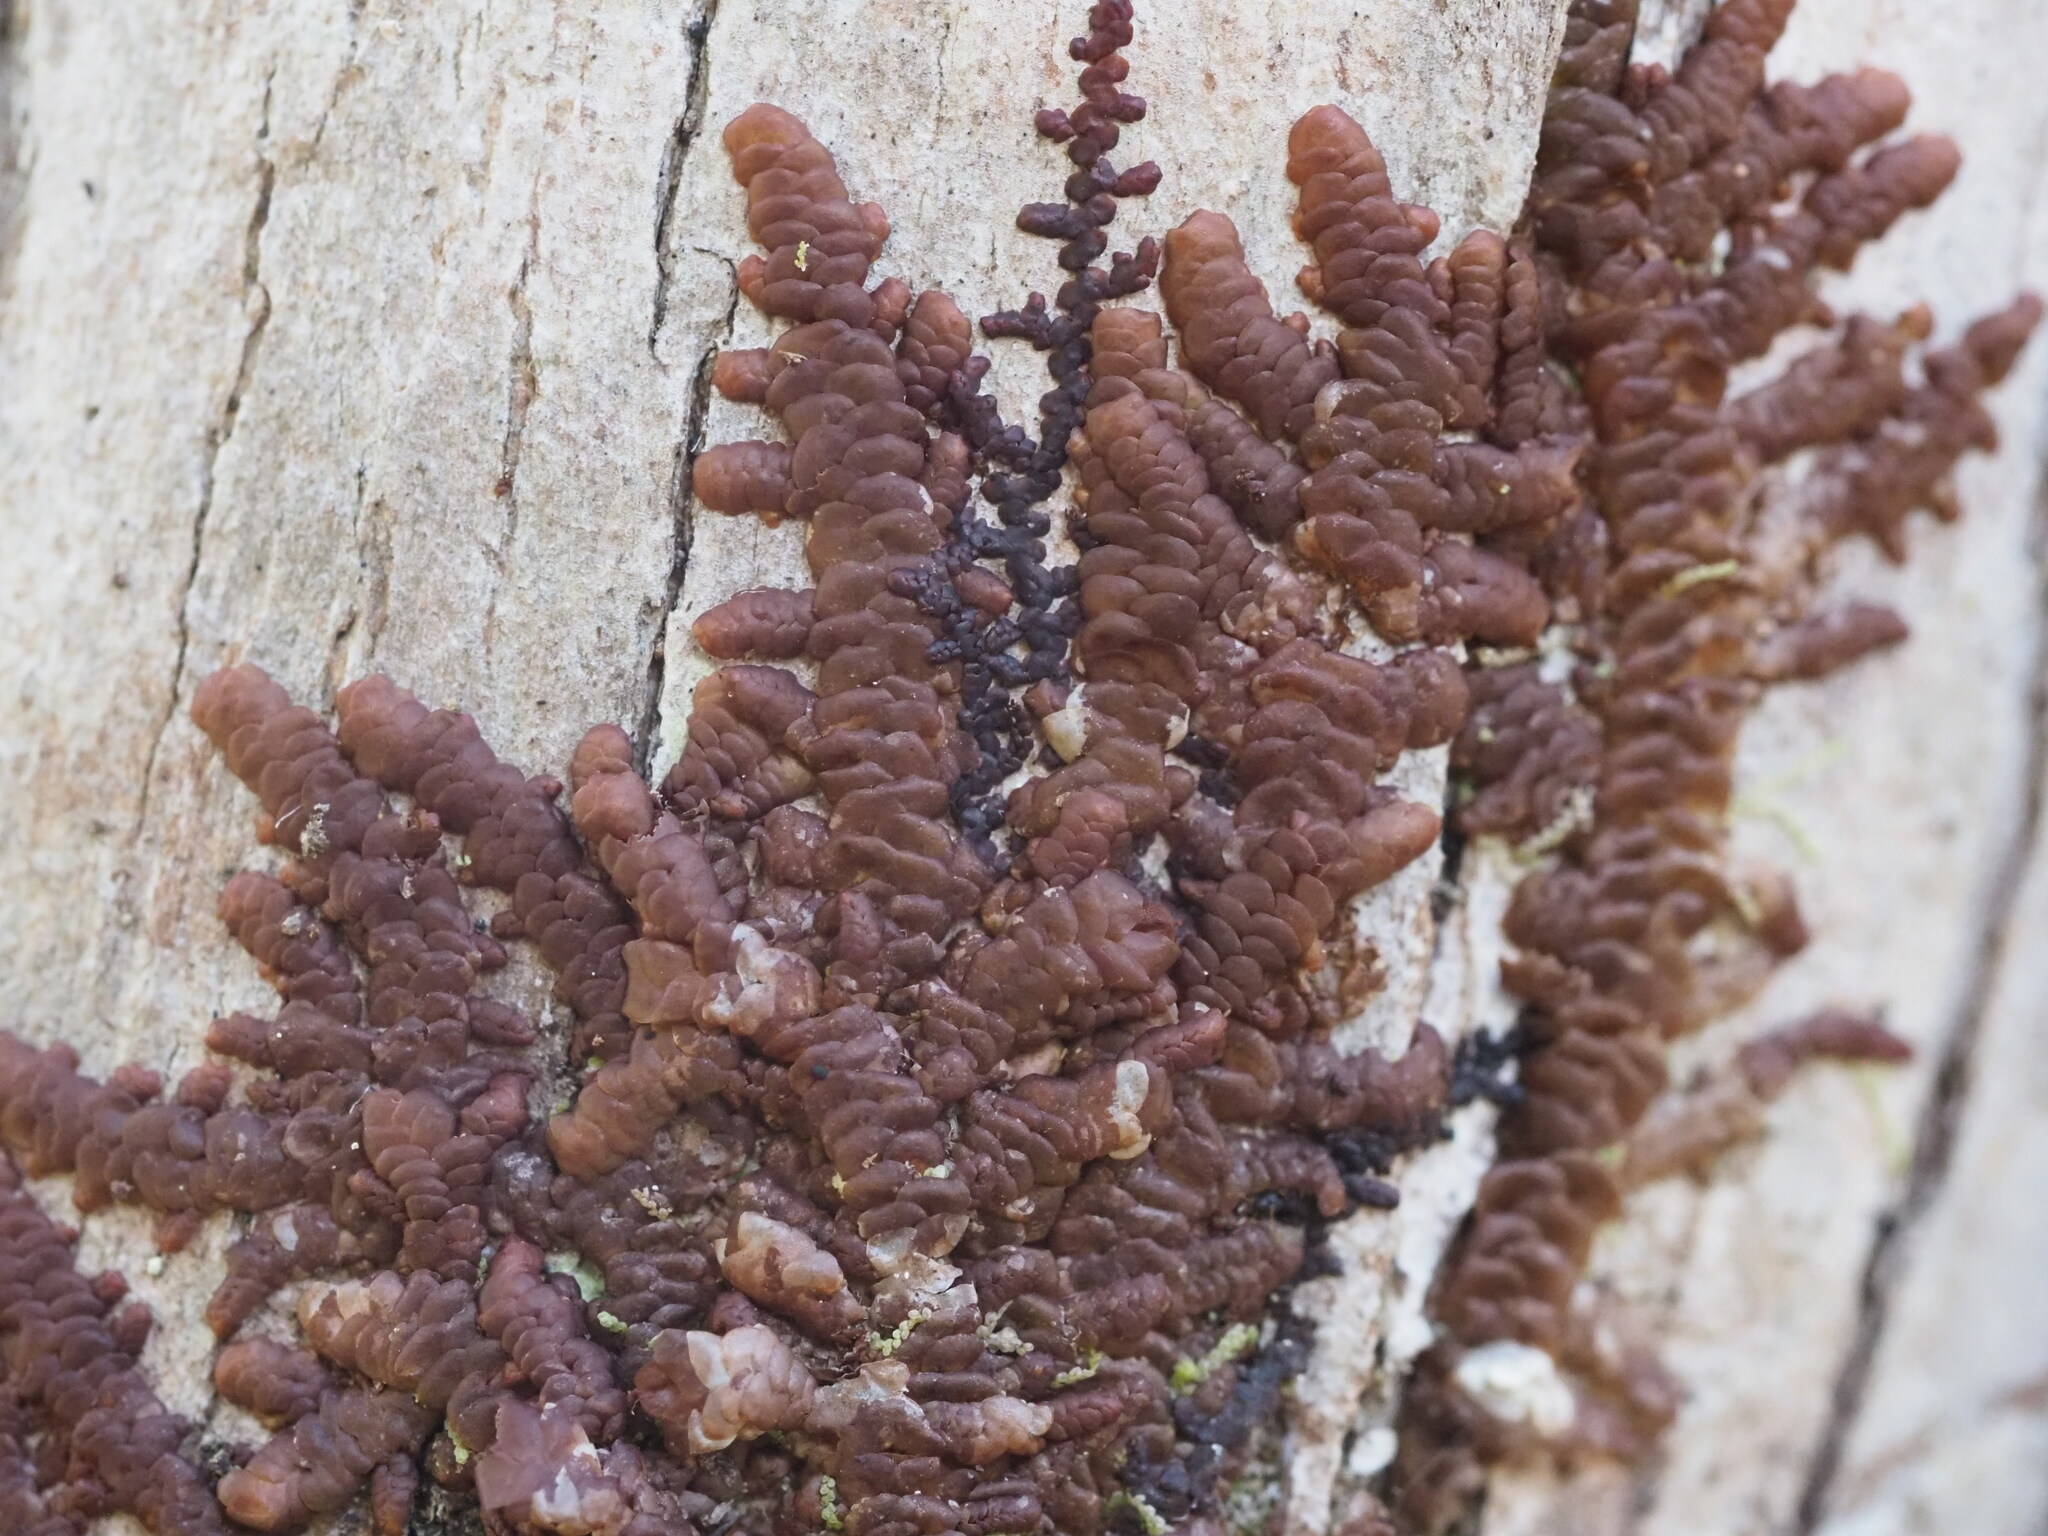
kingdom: Plantae
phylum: Marchantiophyta
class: Jungermanniopsida
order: Porellales
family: Frullaniaceae
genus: Frullania
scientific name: Frullania hypoleuca
